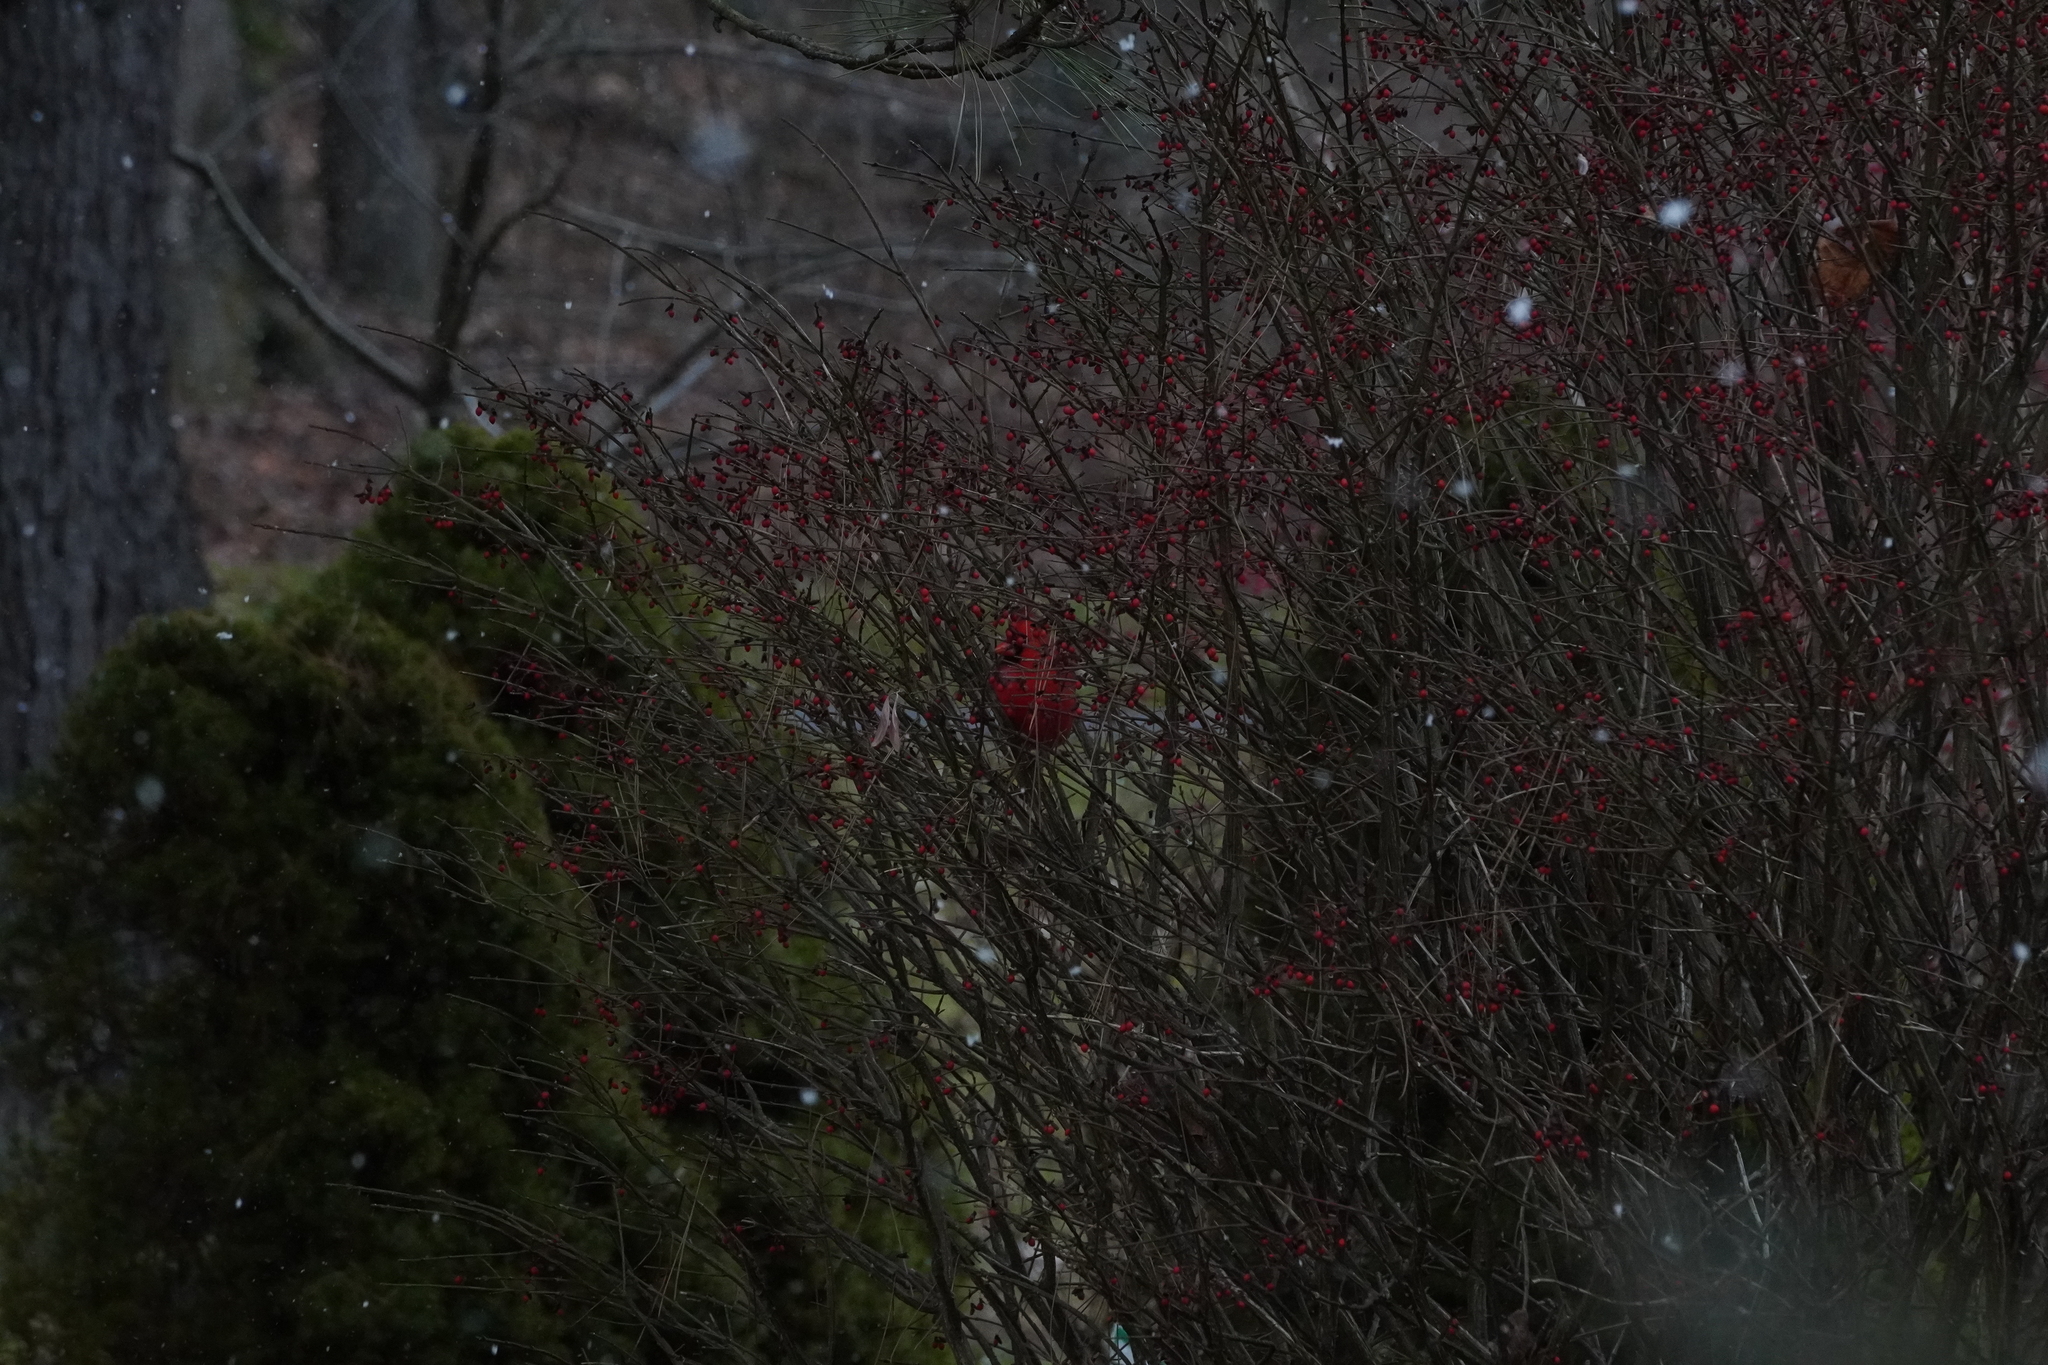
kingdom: Animalia
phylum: Chordata
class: Aves
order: Passeriformes
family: Cardinalidae
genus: Cardinalis
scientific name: Cardinalis cardinalis
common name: Northern cardinal
